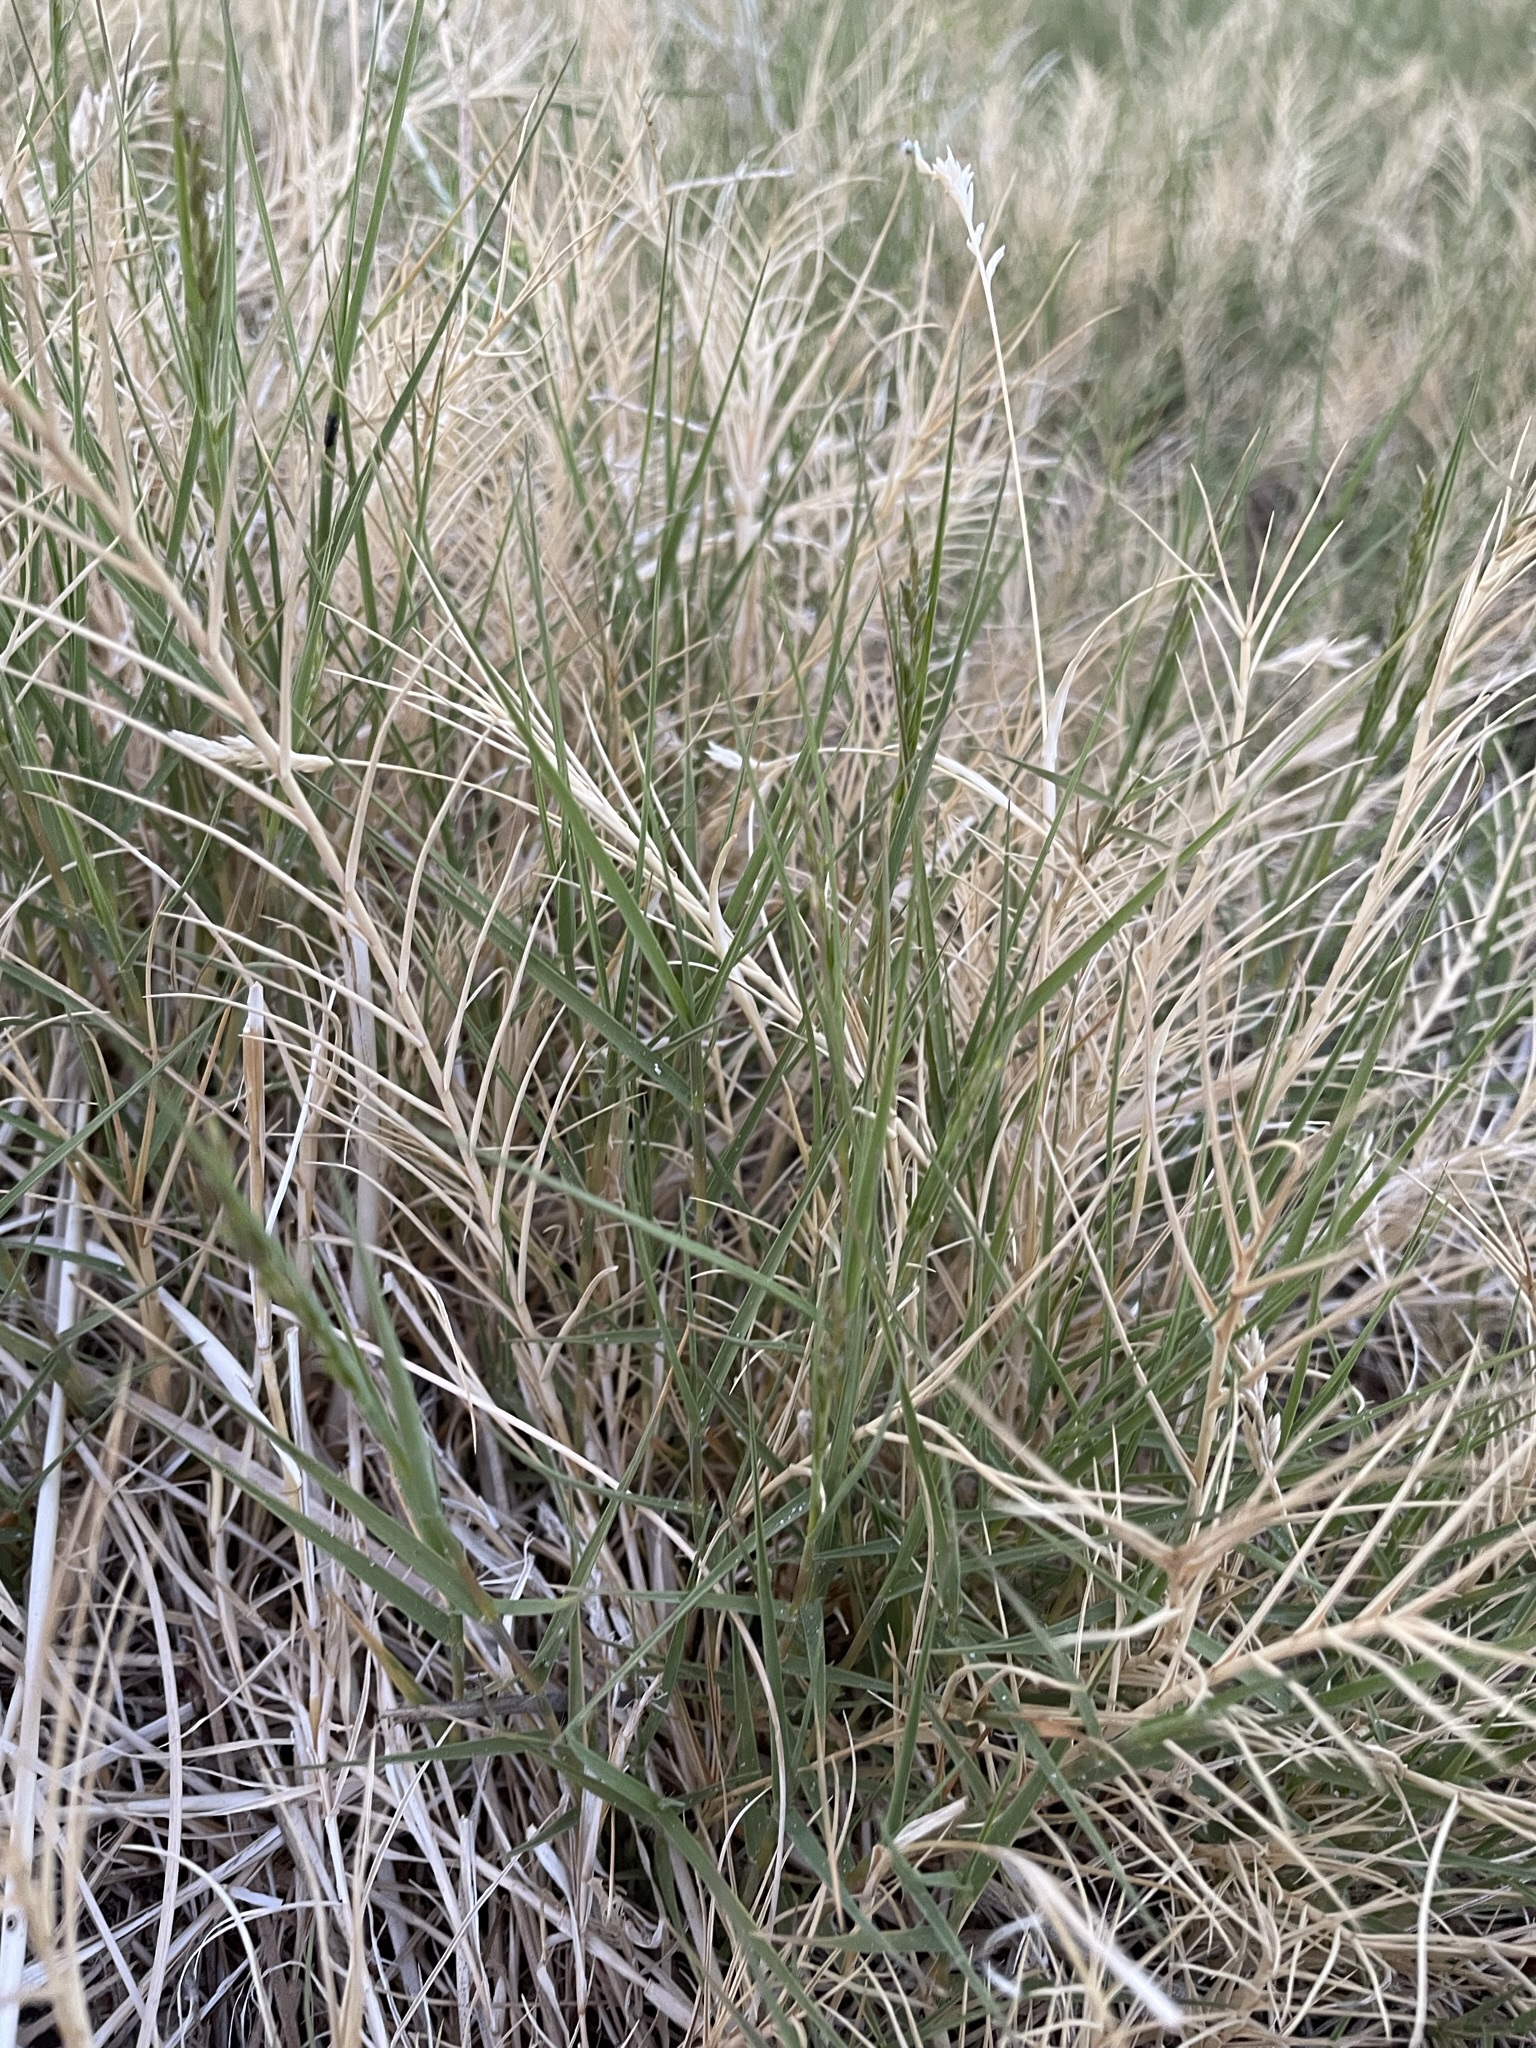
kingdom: Plantae
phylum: Tracheophyta
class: Liliopsida
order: Poales
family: Poaceae
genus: Distichlis
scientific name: Distichlis spicata
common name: Saltgrass
